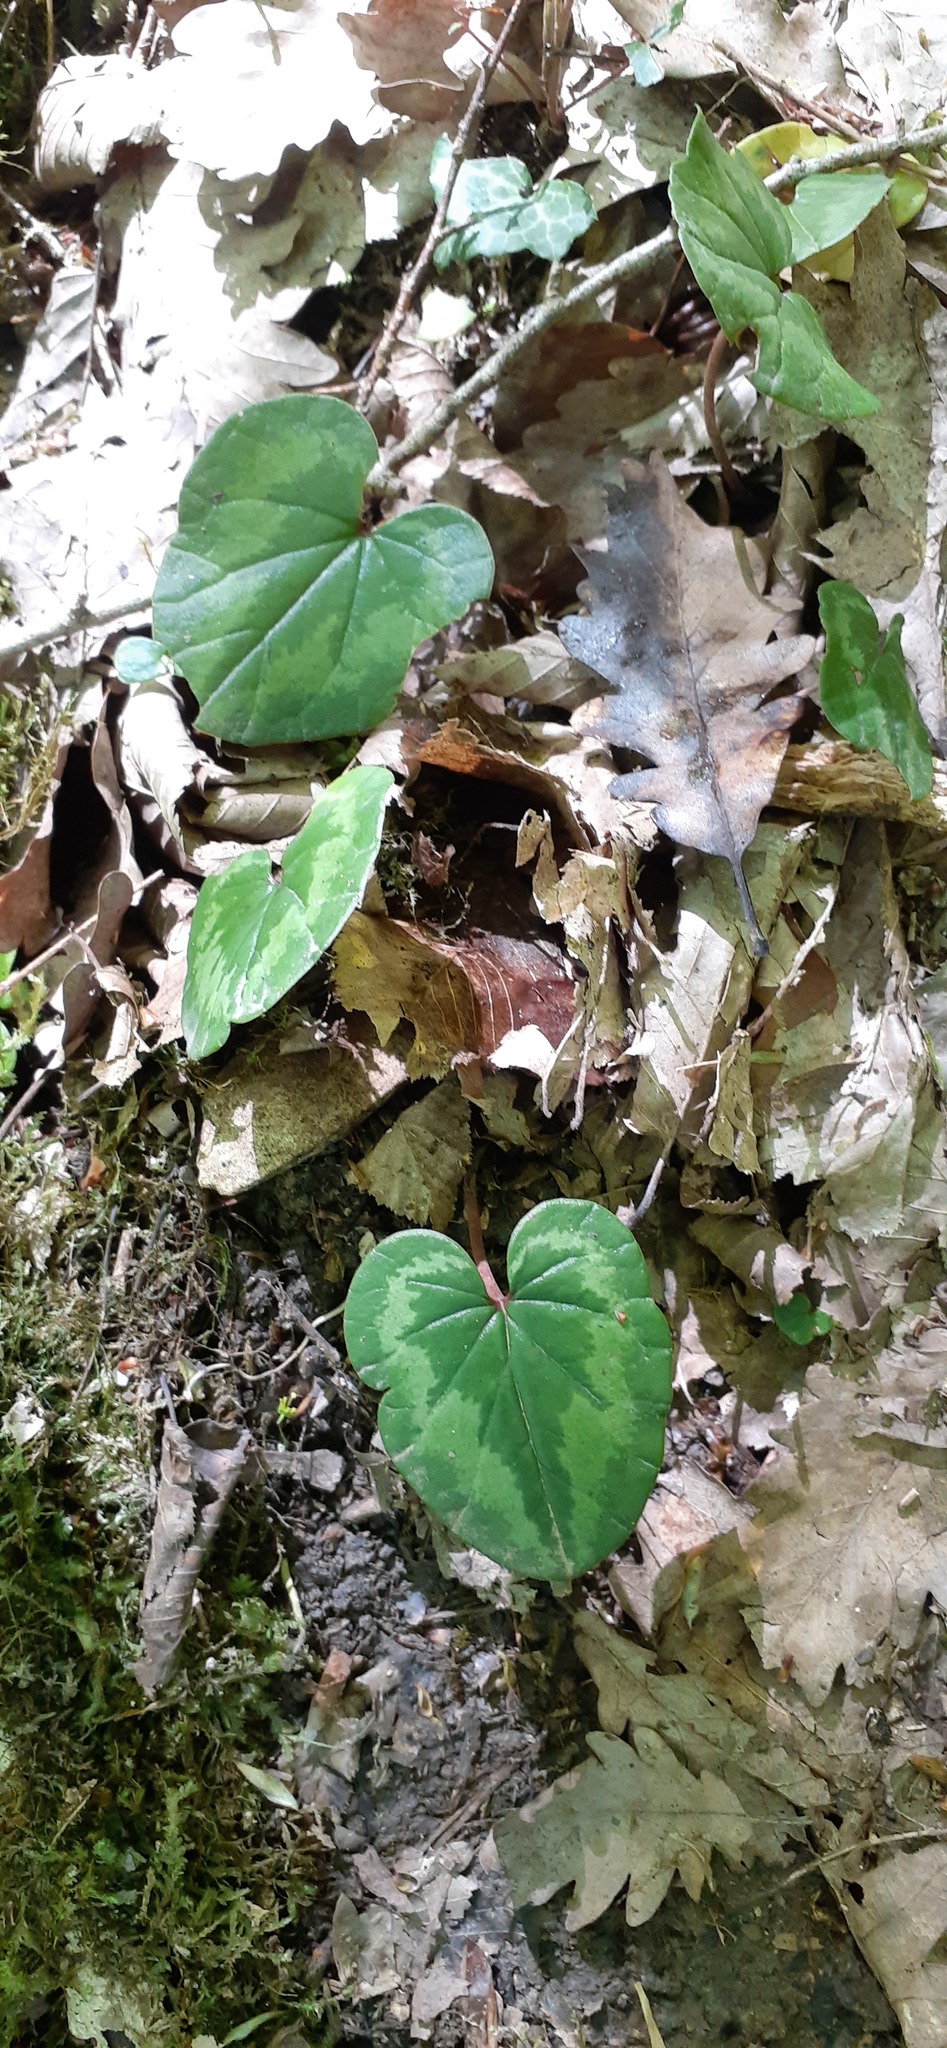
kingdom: Plantae
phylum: Tracheophyta
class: Magnoliopsida
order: Ericales
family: Primulaceae
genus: Cyclamen
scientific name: Cyclamen coum
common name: Eastern sowbread
